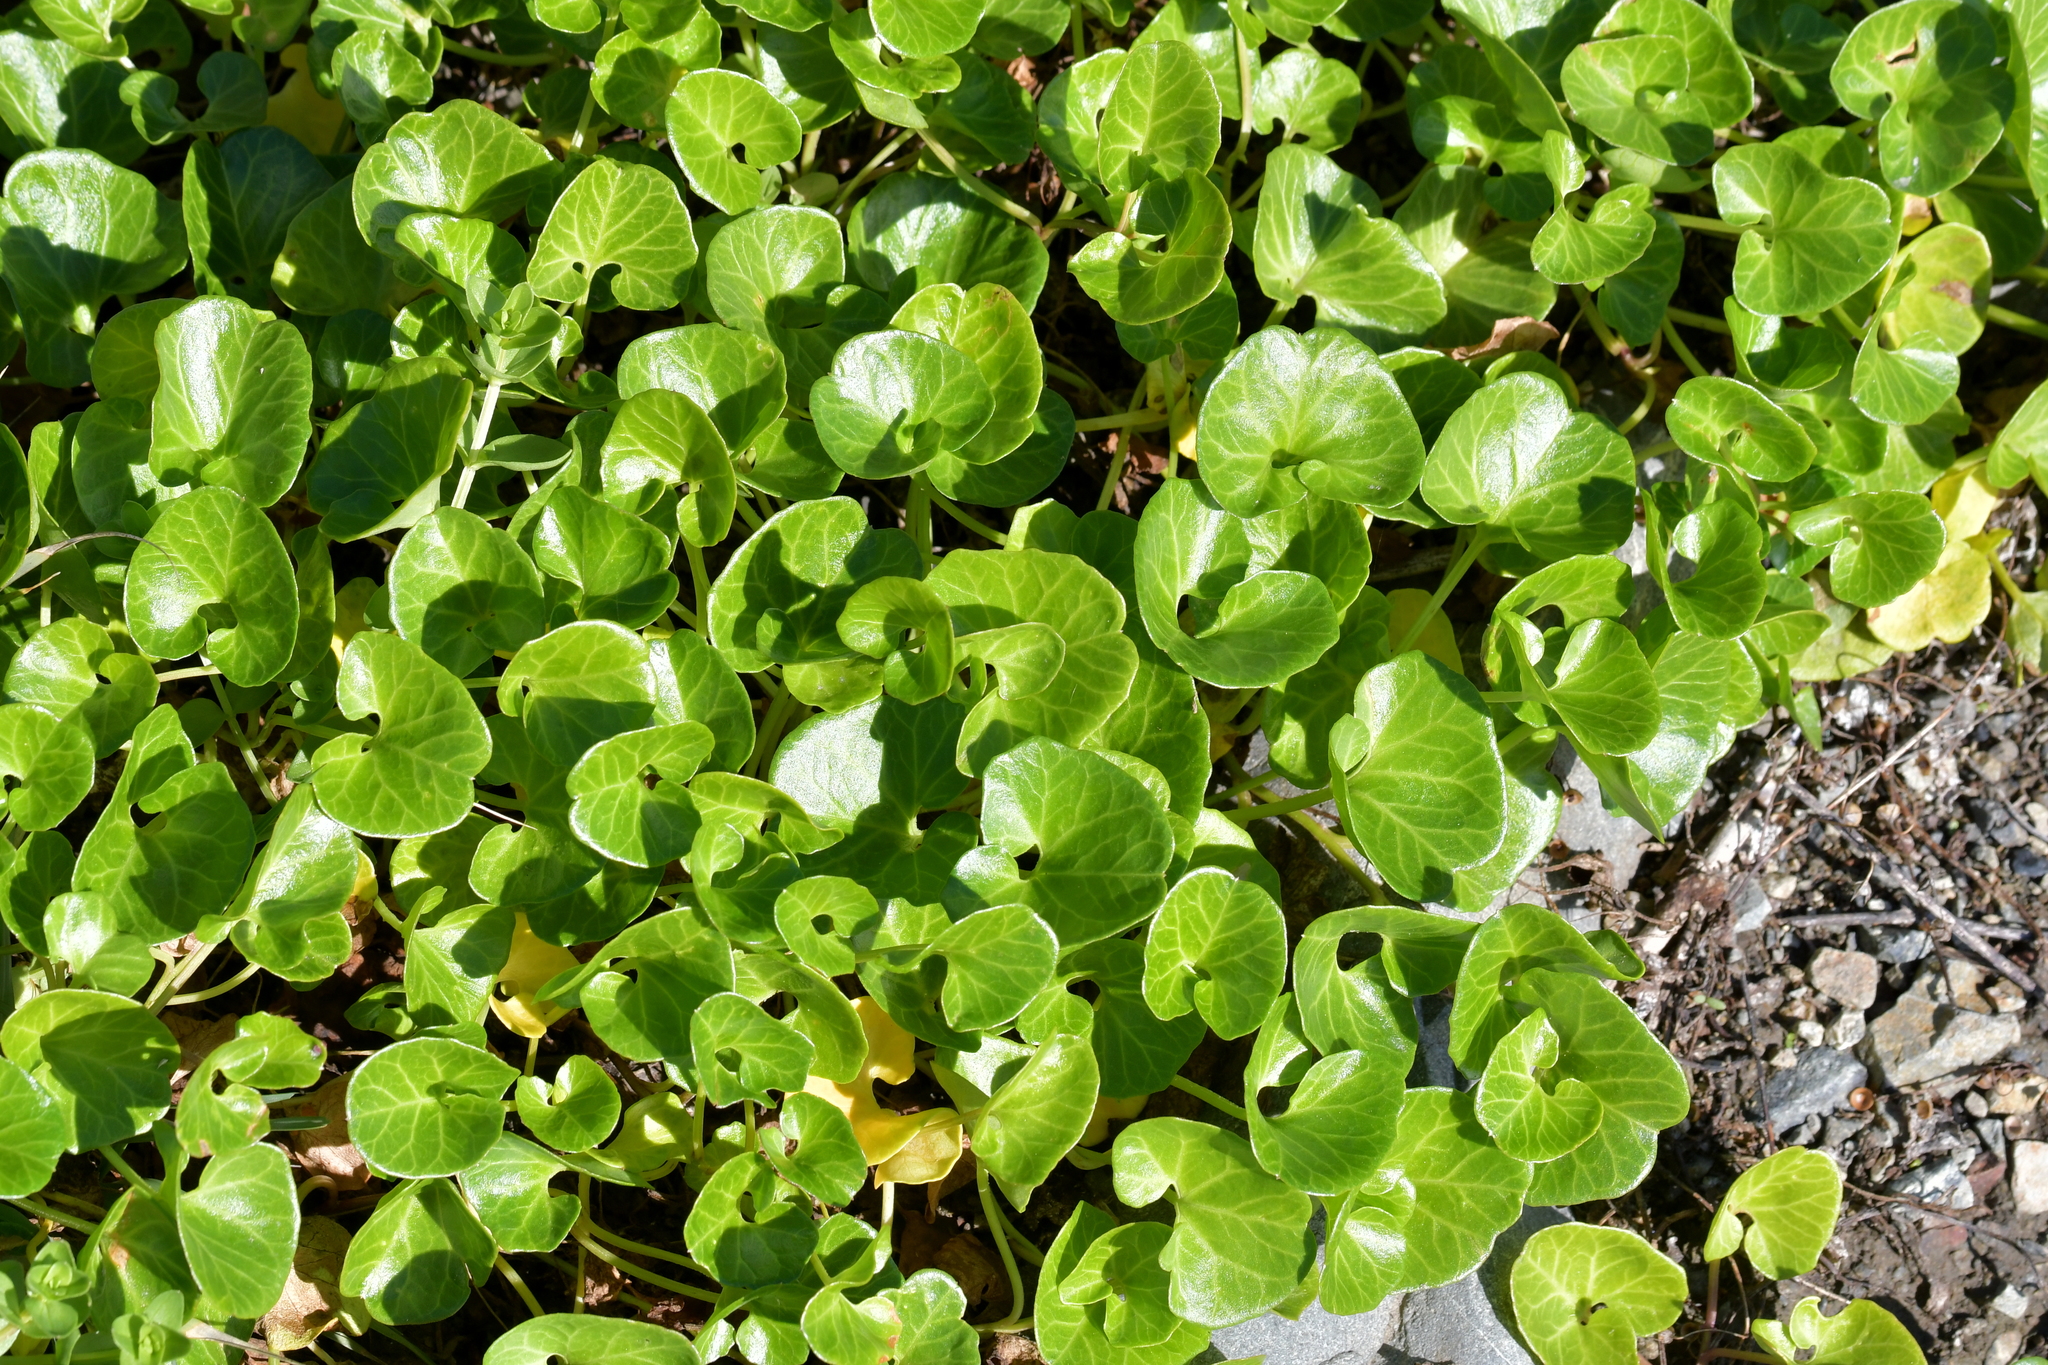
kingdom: Plantae
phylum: Tracheophyta
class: Magnoliopsida
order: Solanales
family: Convolvulaceae
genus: Calystegia
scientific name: Calystegia soldanella
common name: Sea bindweed
